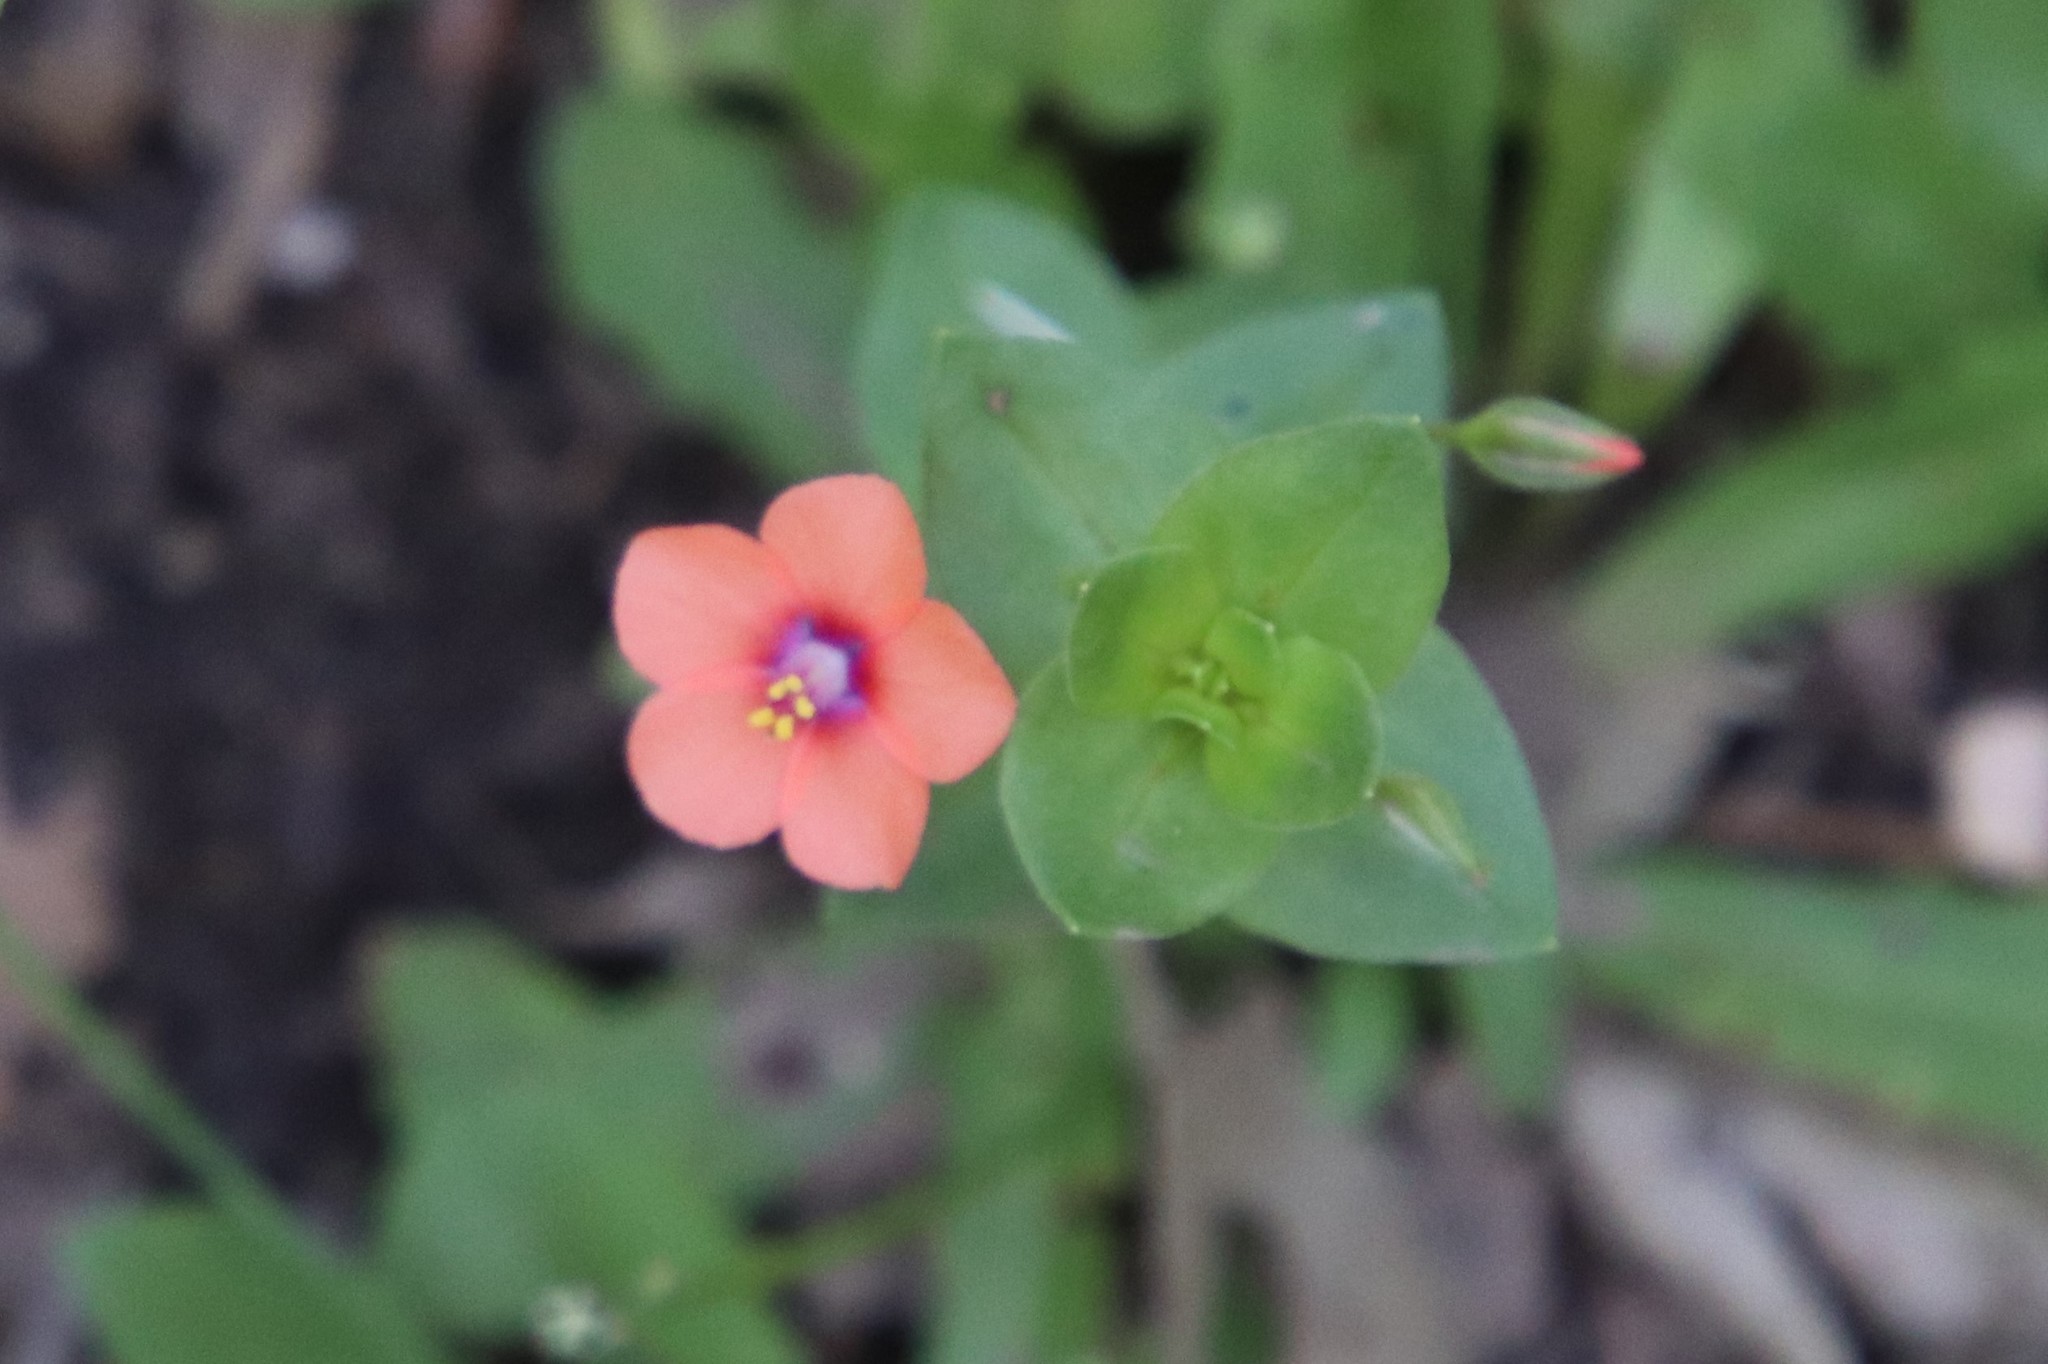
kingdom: Plantae
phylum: Tracheophyta
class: Magnoliopsida
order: Ericales
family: Primulaceae
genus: Lysimachia
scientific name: Lysimachia arvensis
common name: Scarlet pimpernel
